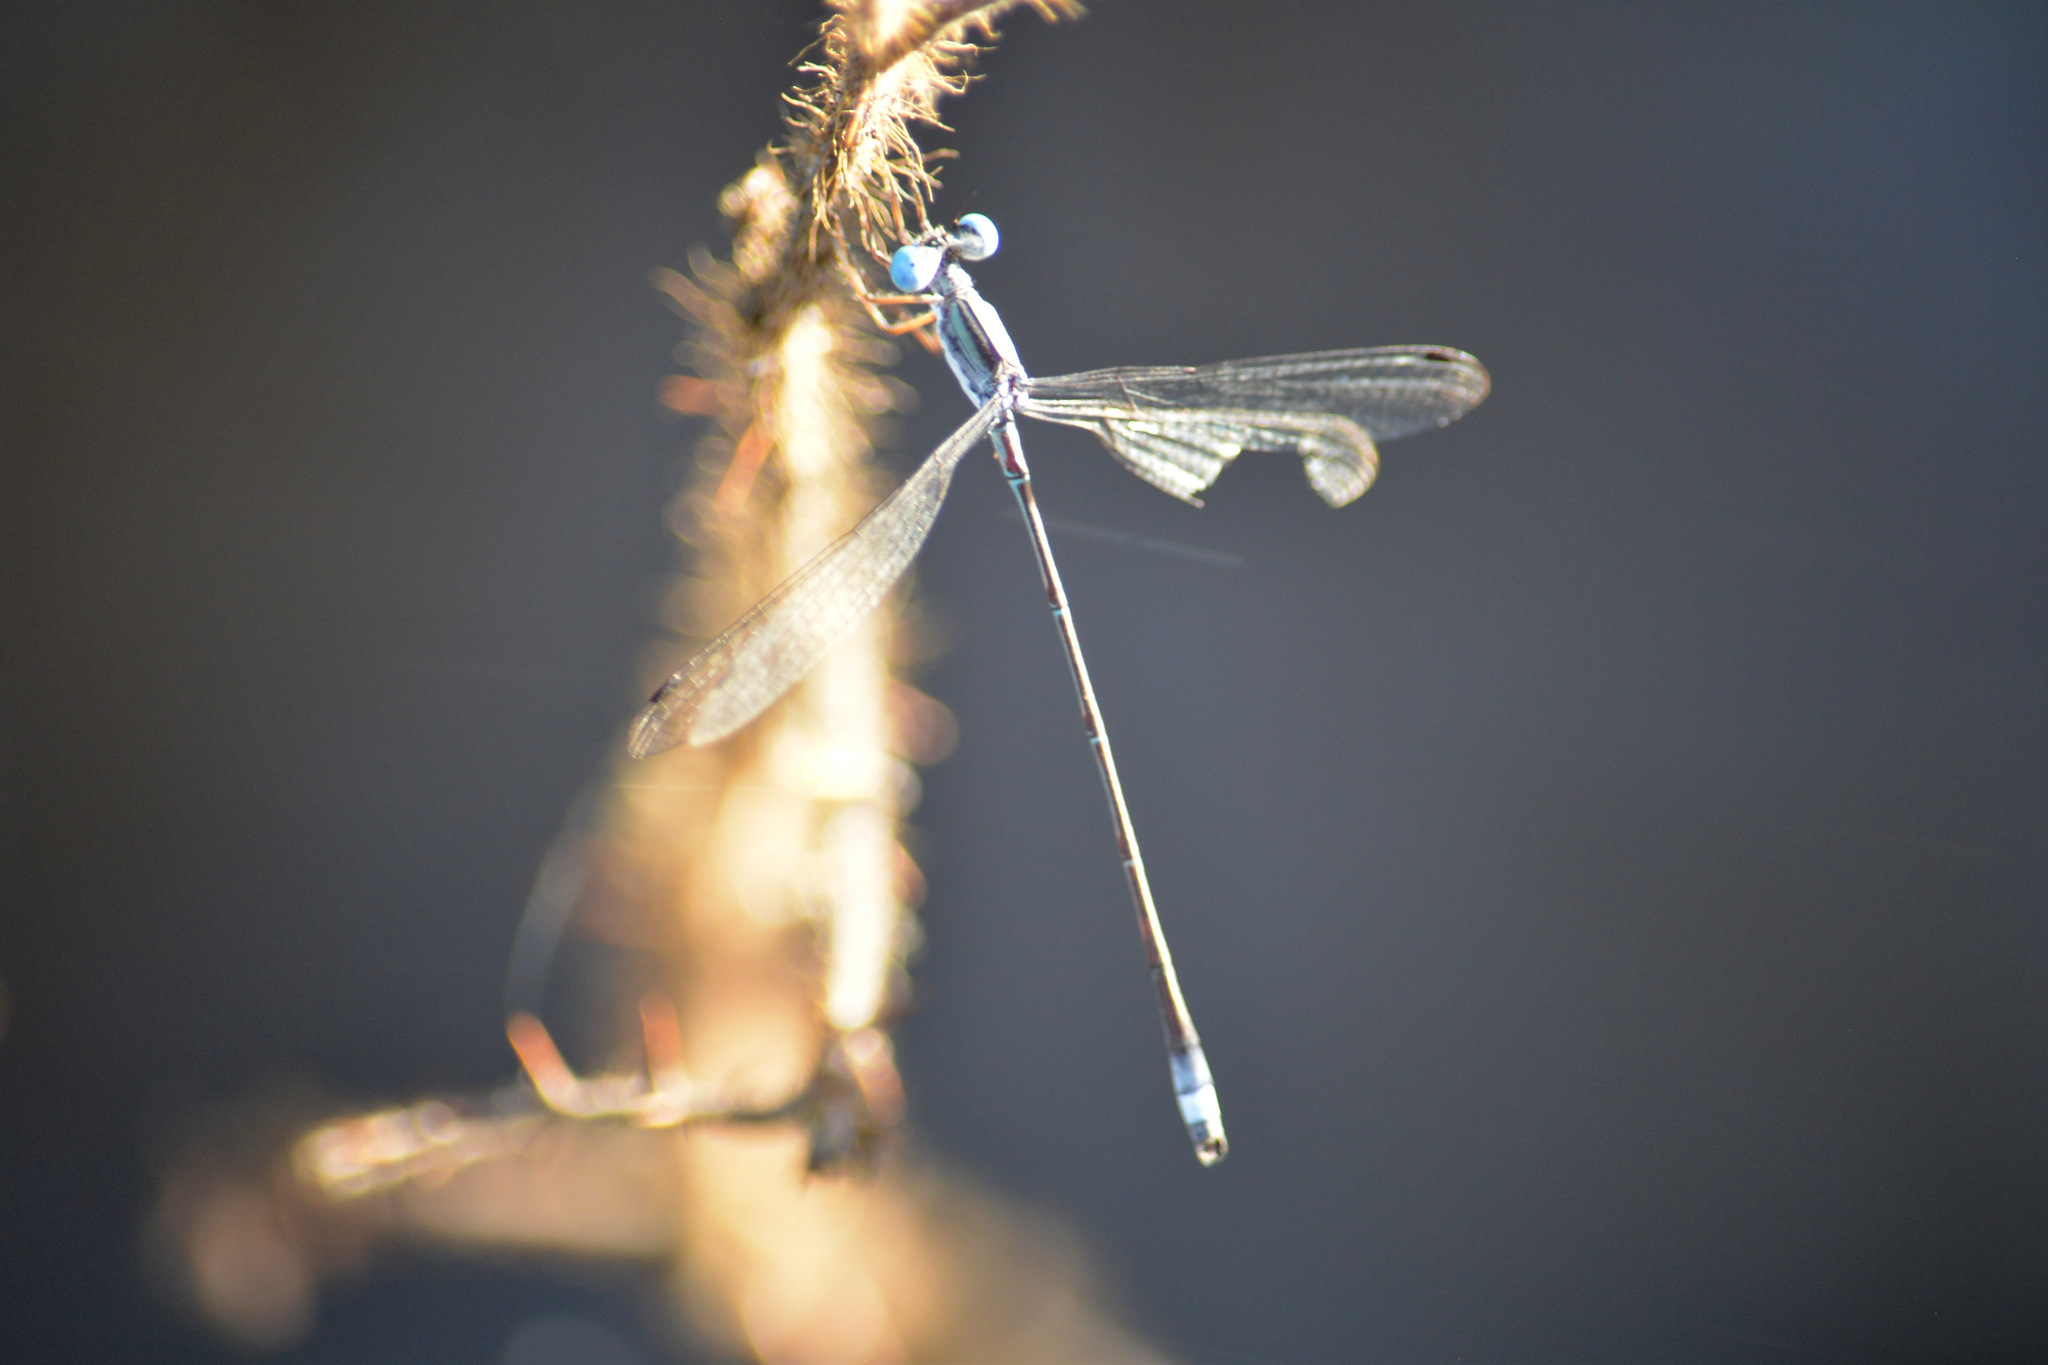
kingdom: Animalia
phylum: Arthropoda
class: Insecta
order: Odonata
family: Lestidae
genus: Lestes
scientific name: Lestes forficula
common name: Rainpool spreadwing
